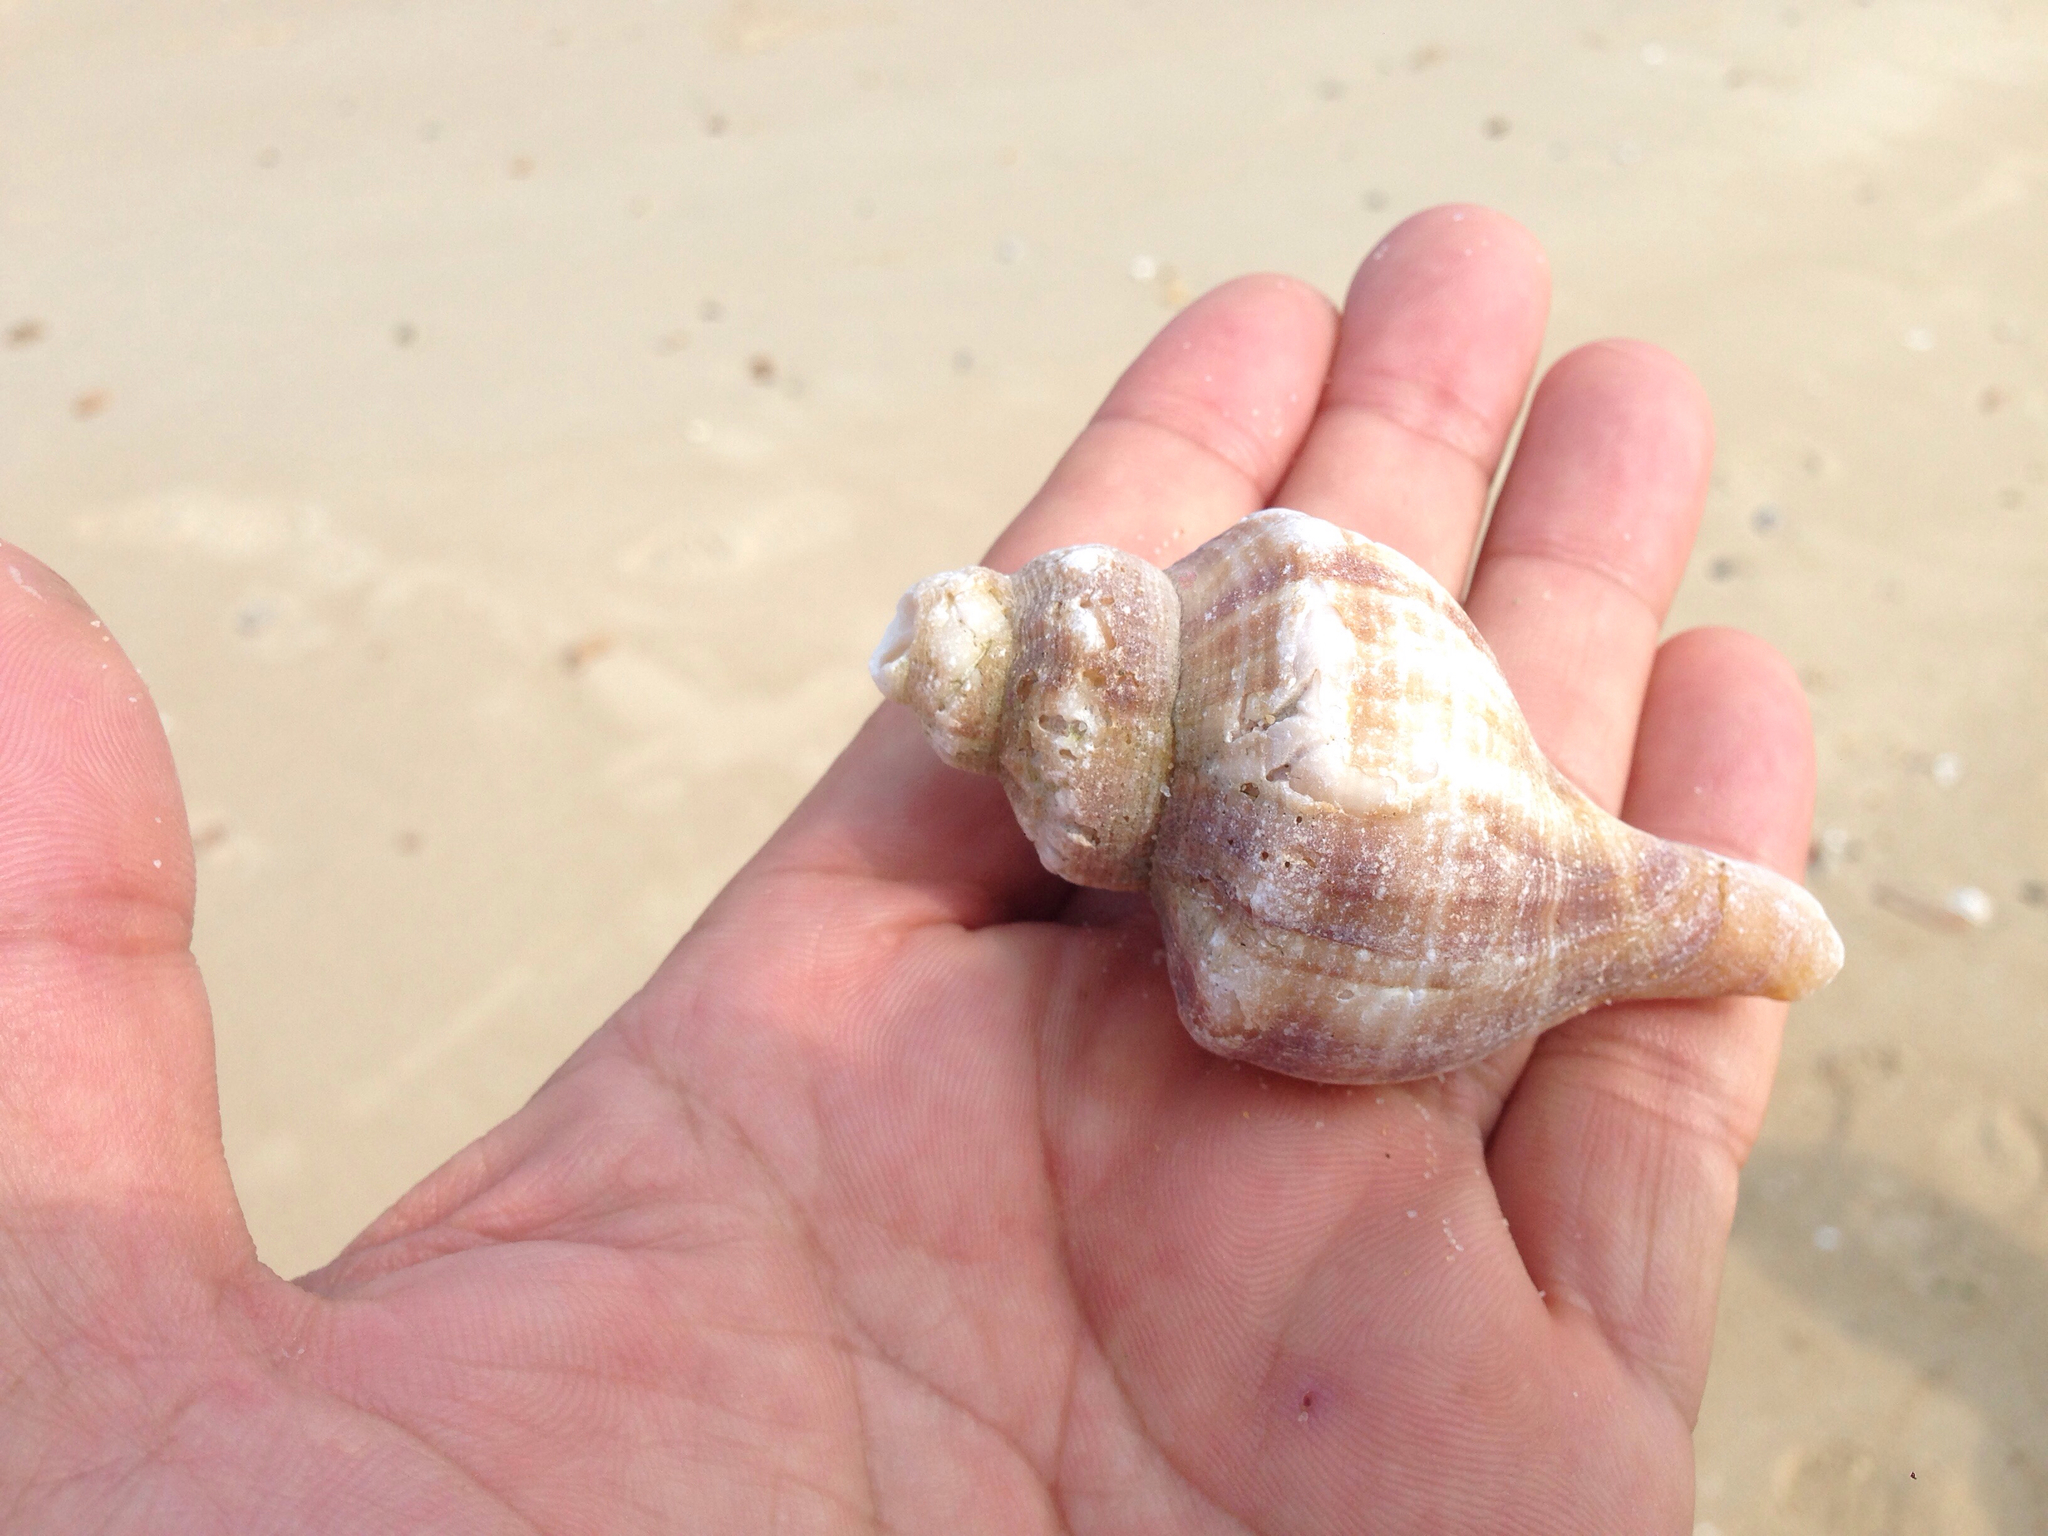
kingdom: Animalia
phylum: Mollusca
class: Gastropoda
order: Neogastropoda
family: Buccinidae
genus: Neptunea
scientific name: Neptunea cumingii
